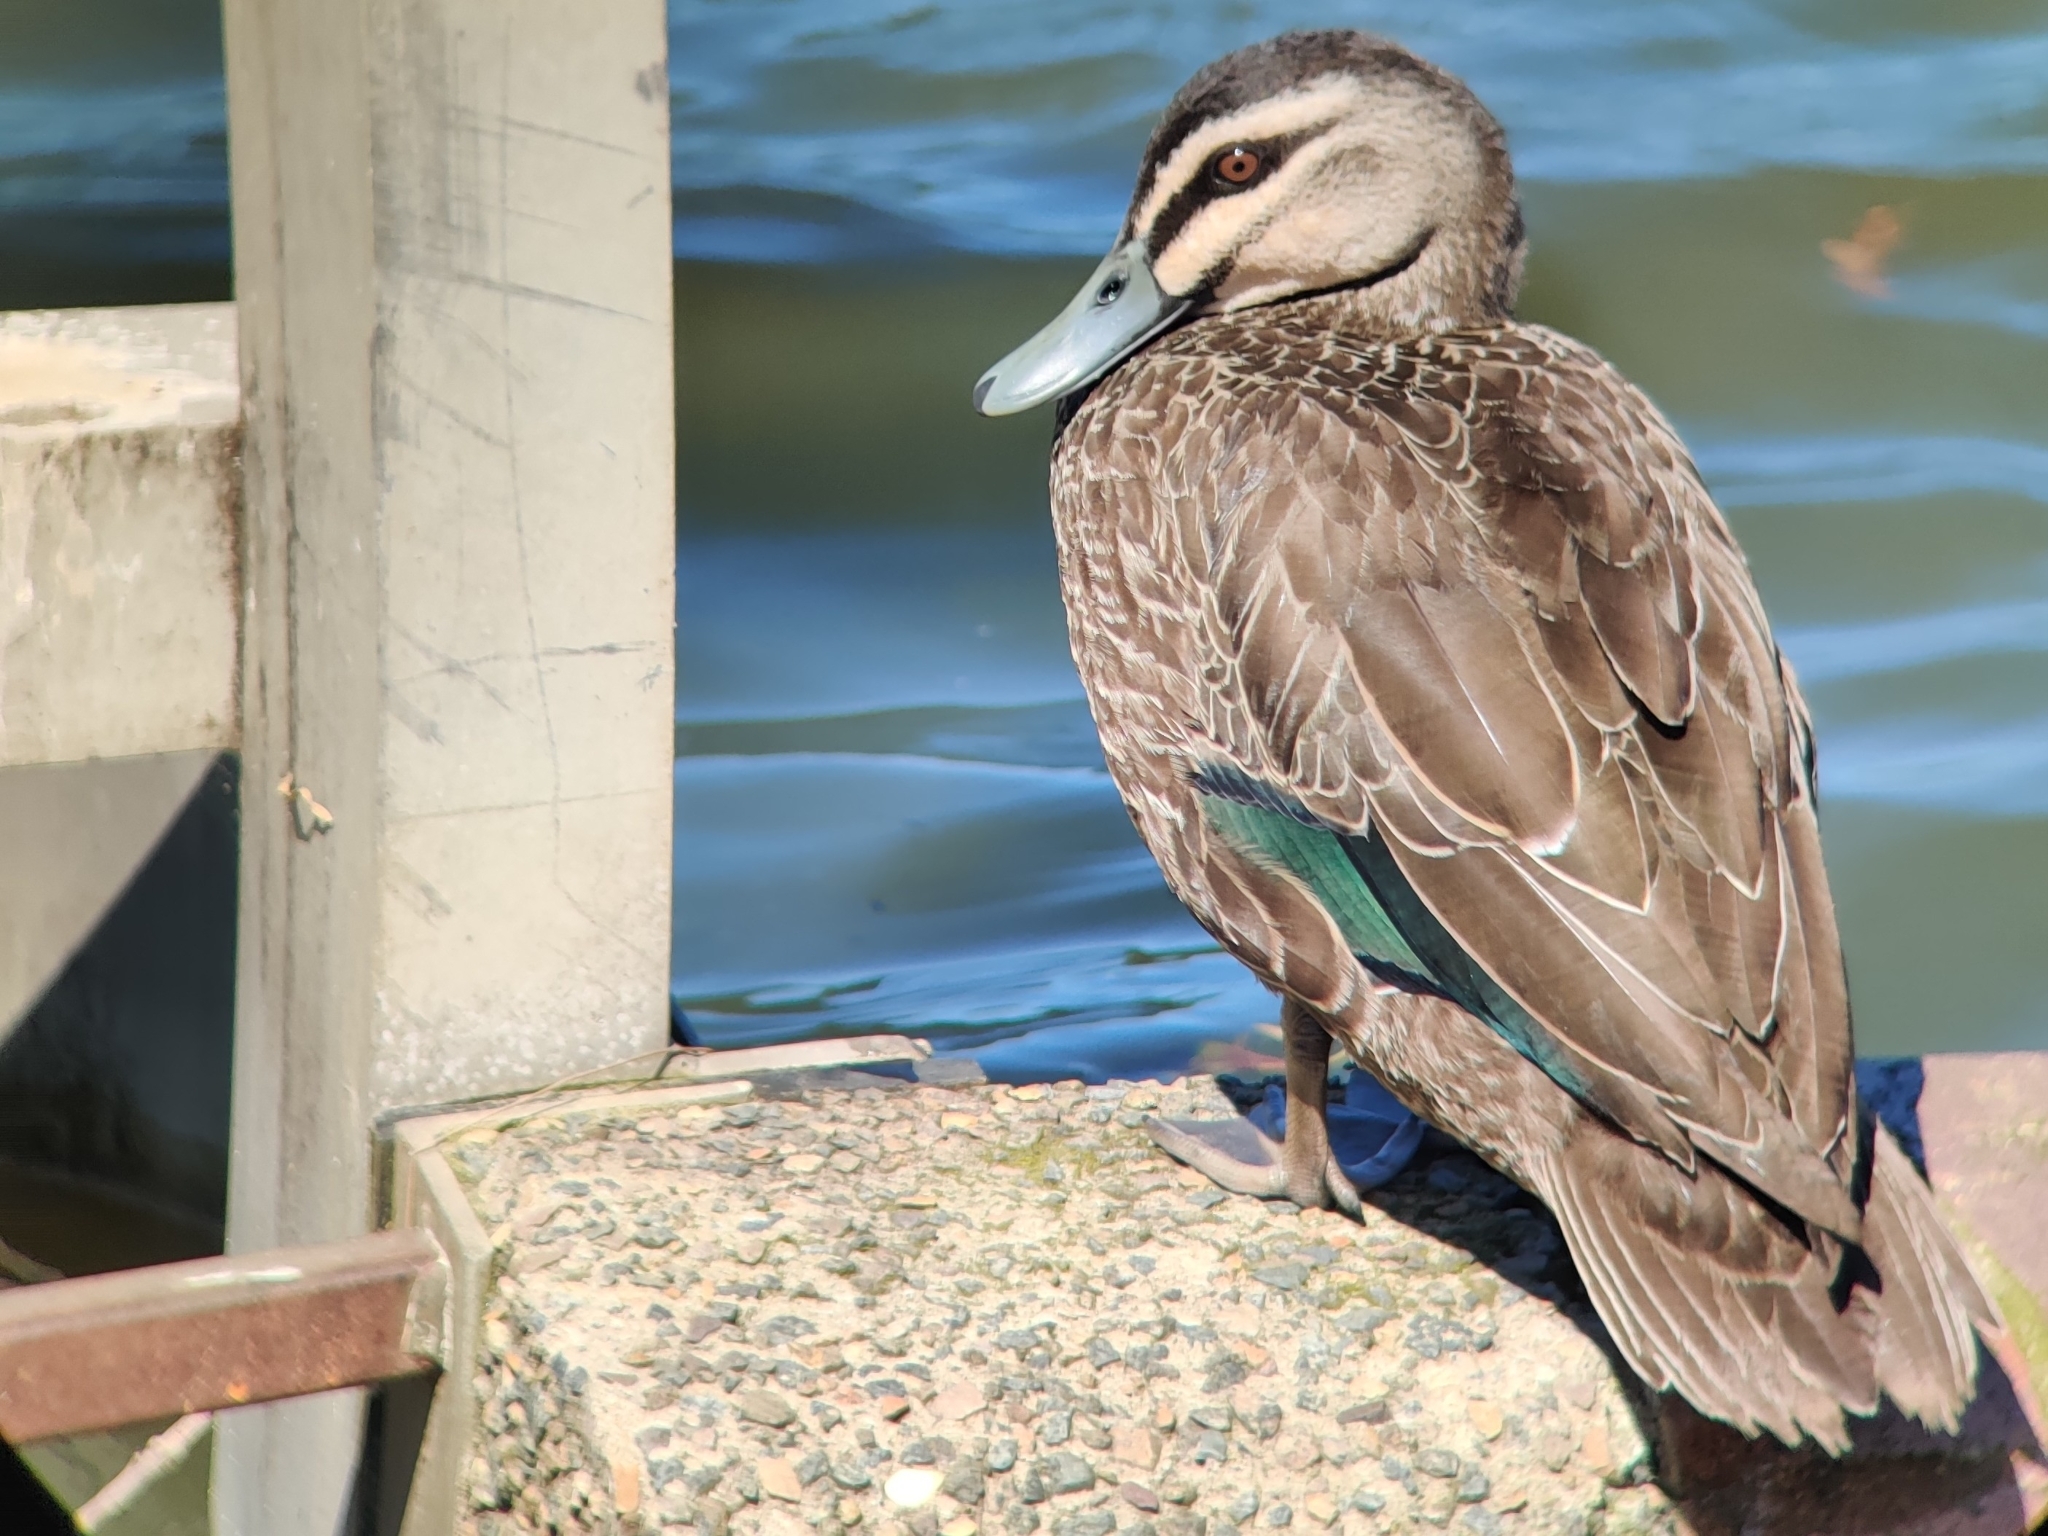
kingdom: Animalia
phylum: Chordata
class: Aves
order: Anseriformes
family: Anatidae
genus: Anas
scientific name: Anas superciliosa
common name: Pacific black duck
